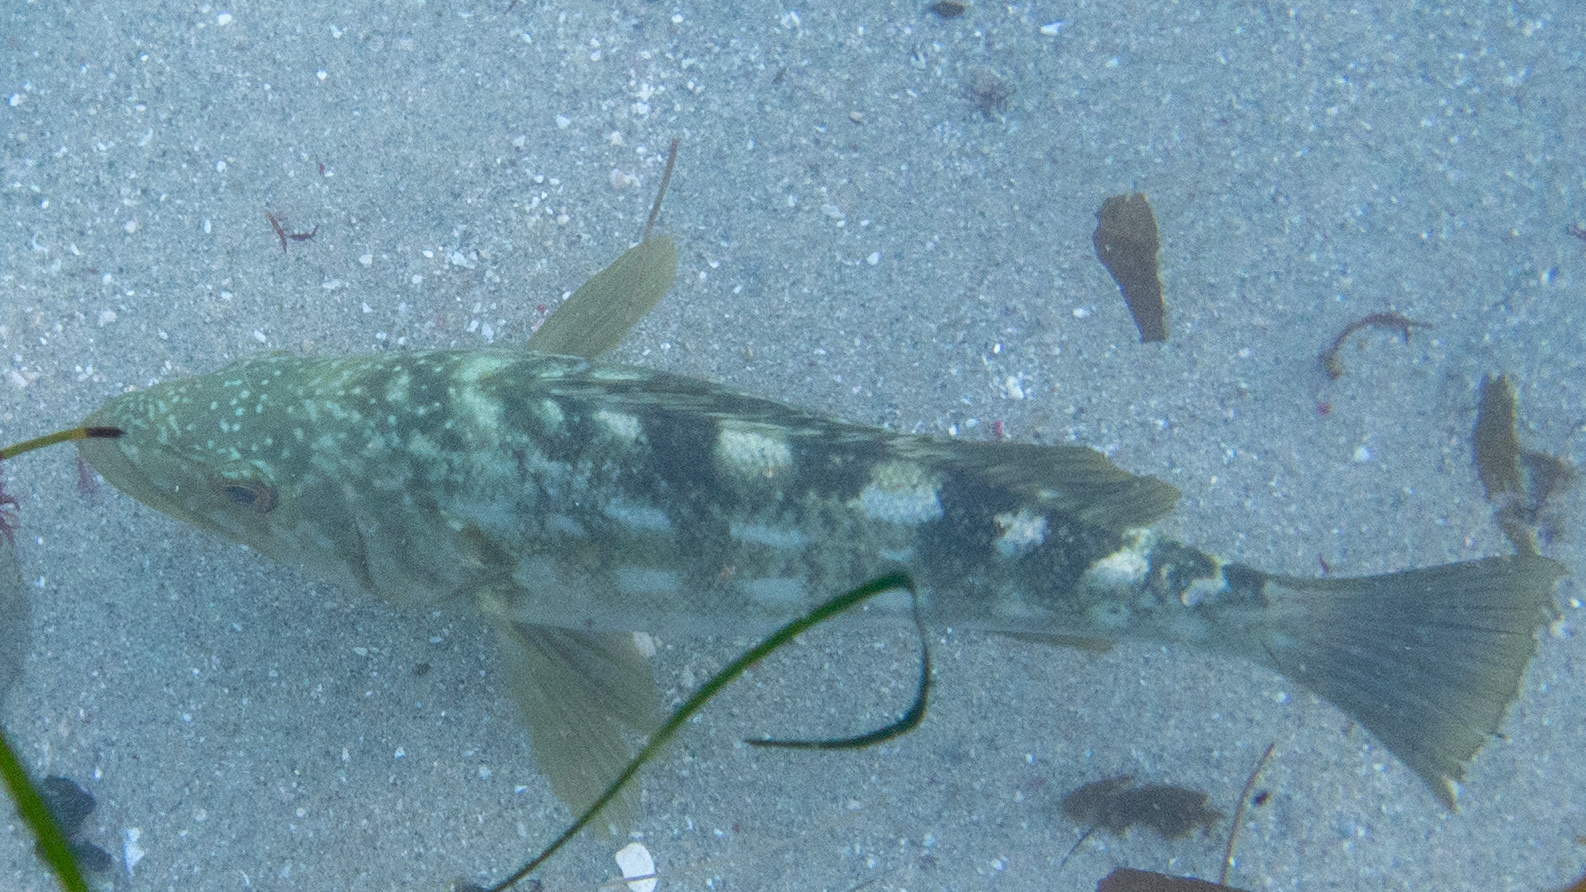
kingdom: Animalia
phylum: Chordata
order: Perciformes
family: Serranidae
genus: Paralabrax
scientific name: Paralabrax clathratus
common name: Kelp bass
